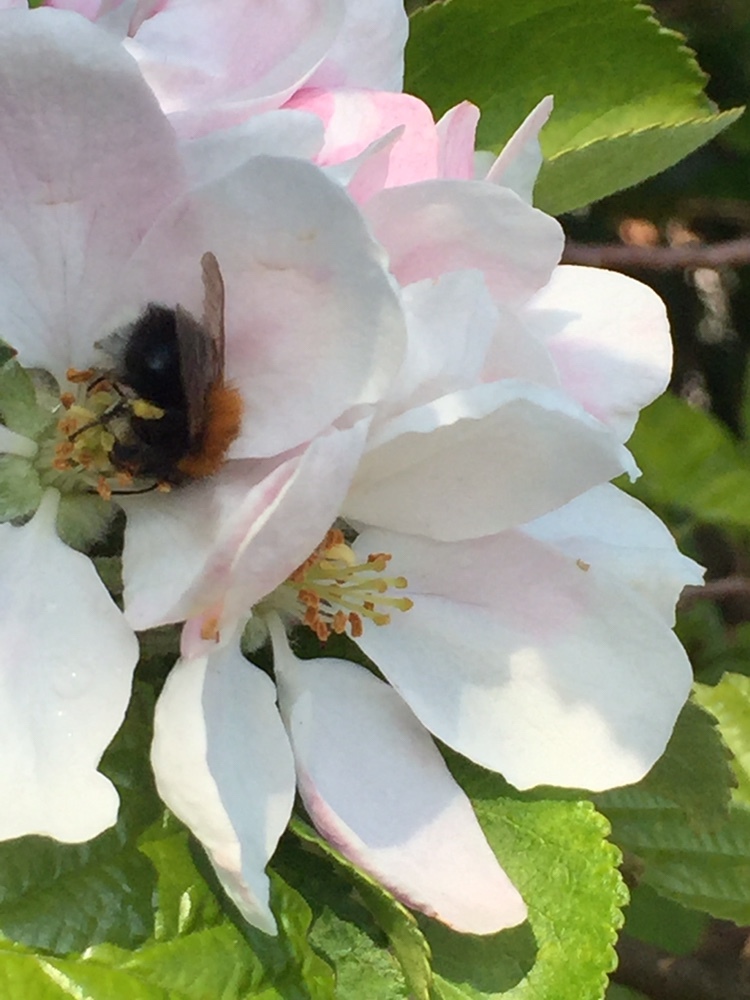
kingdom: Animalia
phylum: Arthropoda
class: Insecta
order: Hymenoptera
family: Apidae
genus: Bombus
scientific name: Bombus hypnorum
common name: New garden bumblebee
